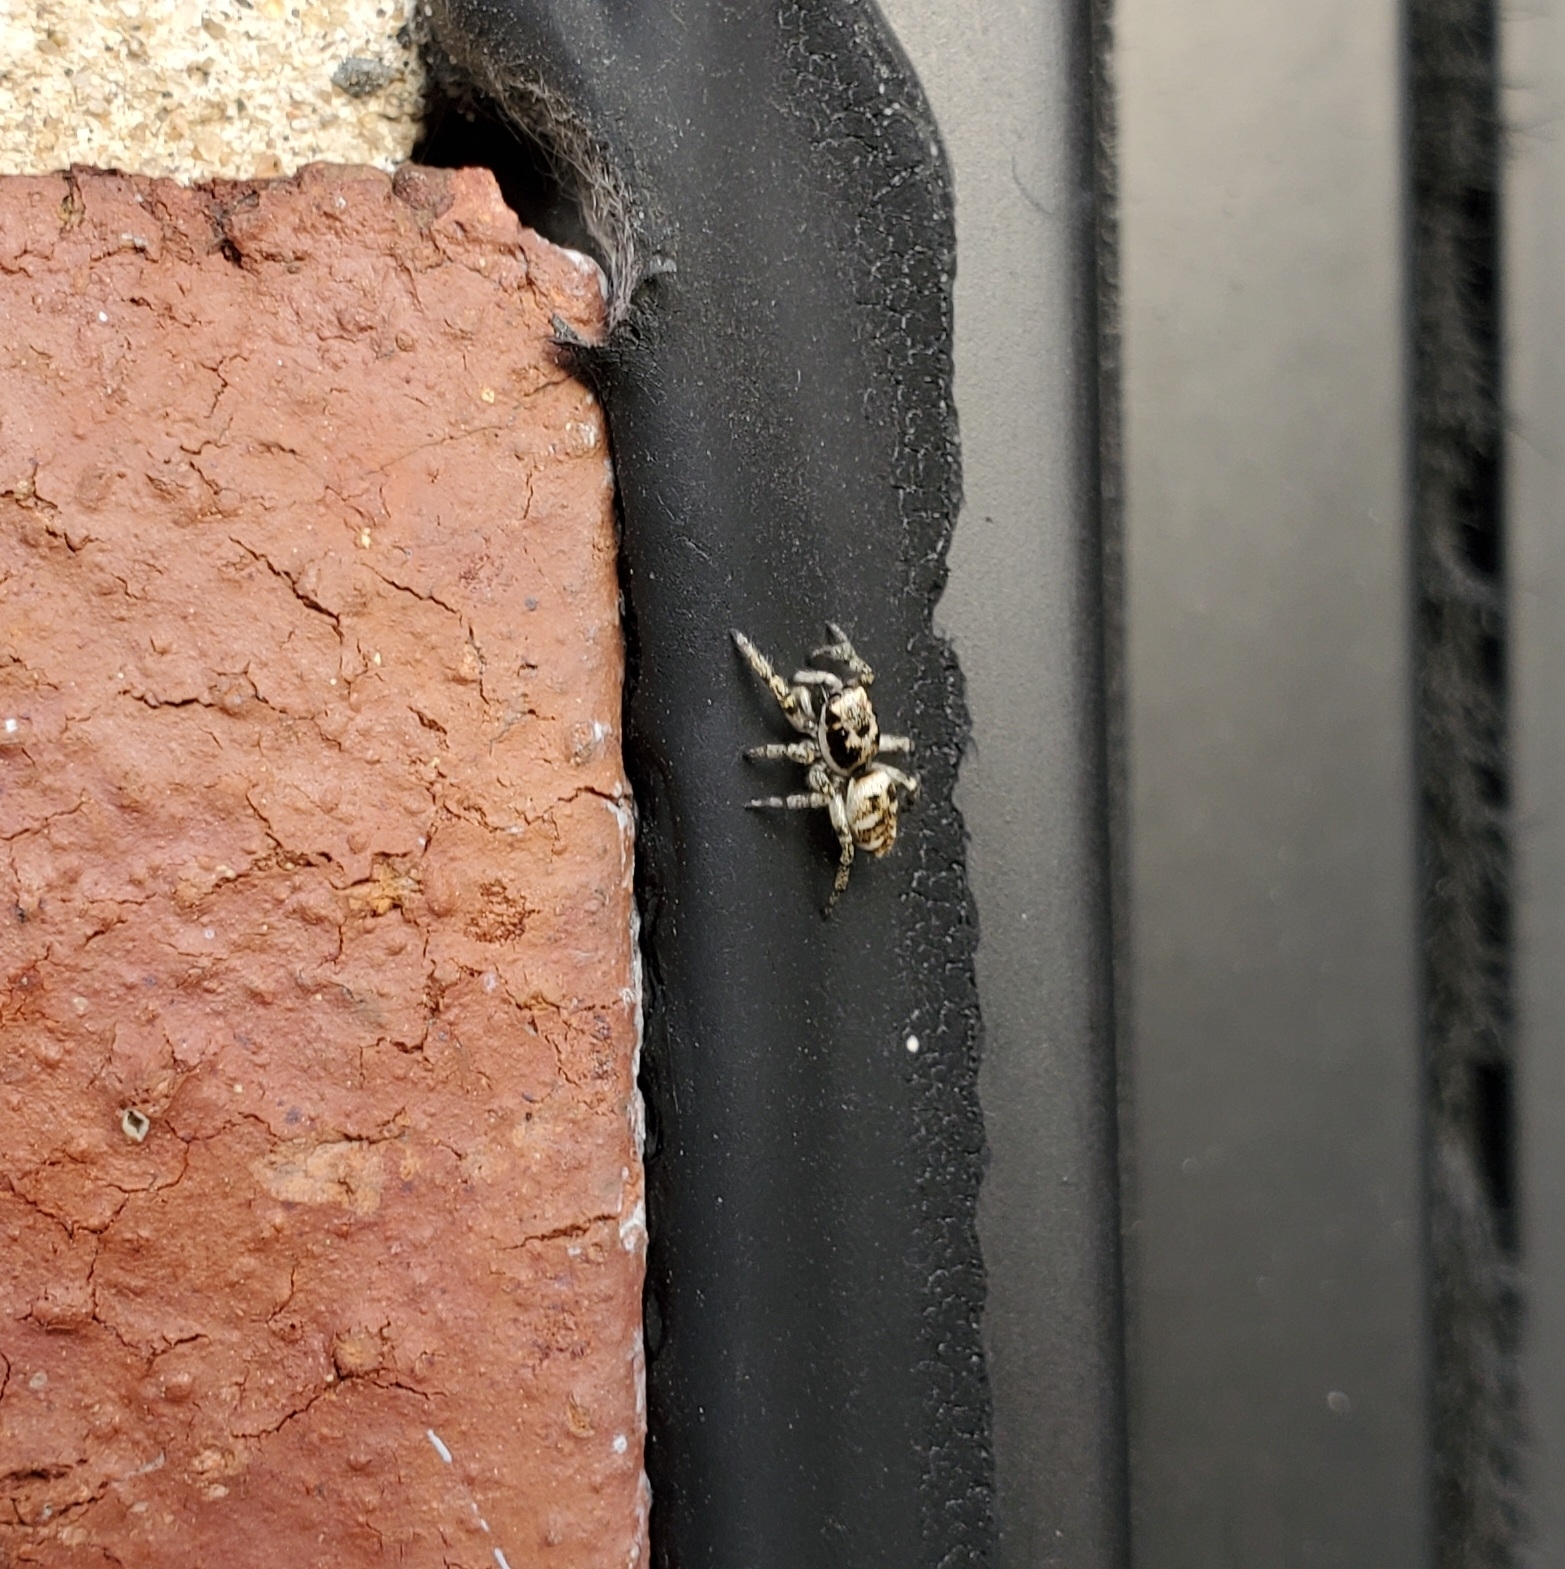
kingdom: Animalia
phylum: Arthropoda
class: Arachnida
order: Araneae
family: Salticidae
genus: Salticus
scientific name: Salticus scenicus
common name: Zebra jumper
